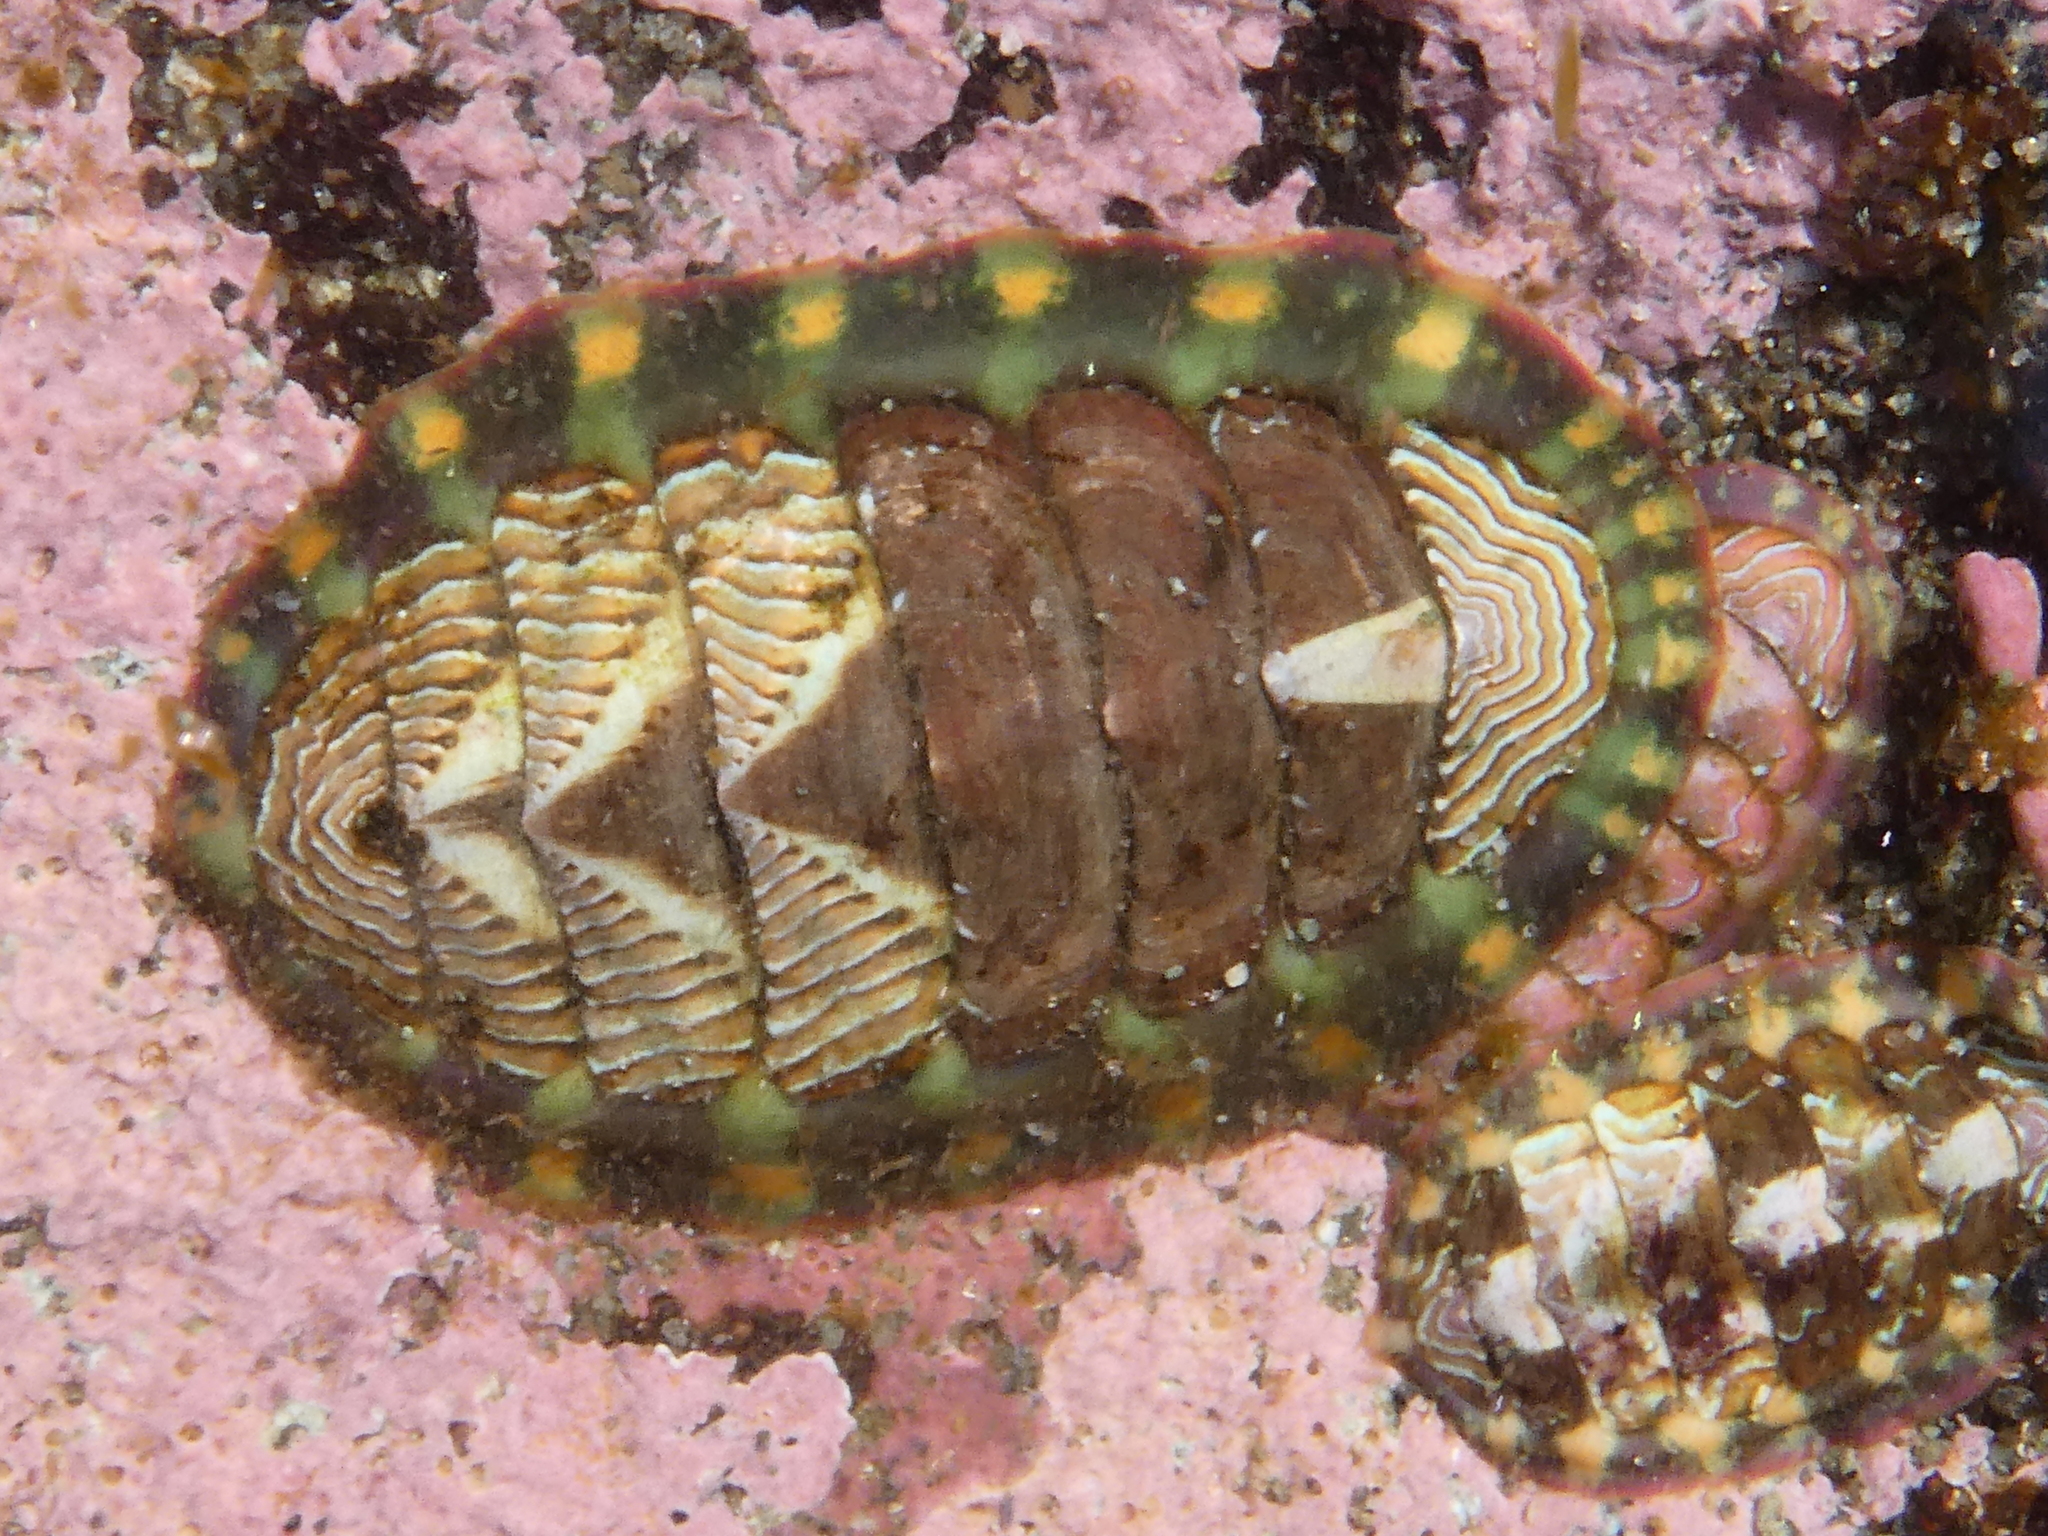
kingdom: Animalia
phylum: Mollusca
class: Polyplacophora
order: Chitonida
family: Tonicellidae
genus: Tonicella
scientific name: Tonicella lineata
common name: Lined chiton
